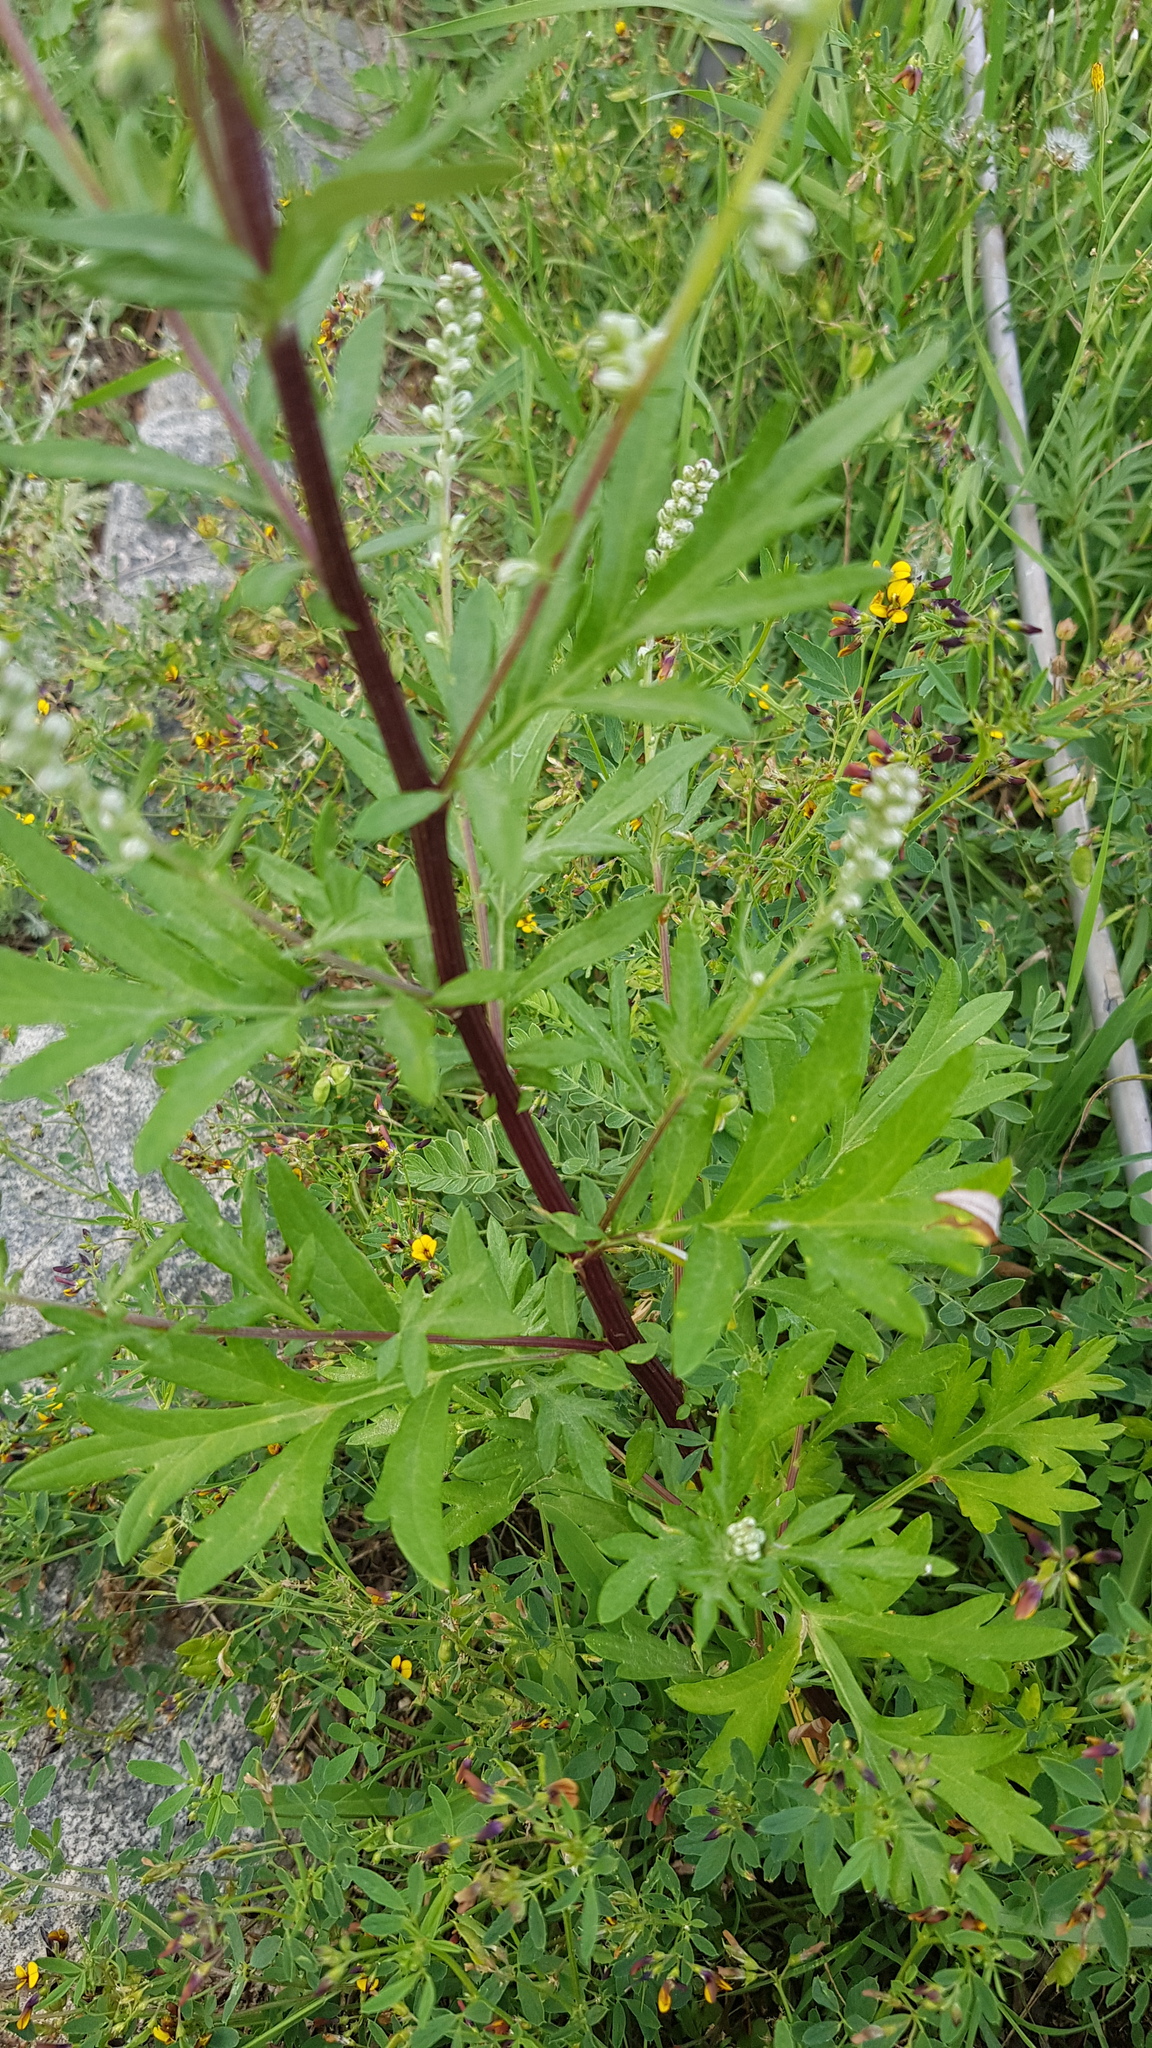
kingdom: Plantae
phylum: Tracheophyta
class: Magnoliopsida
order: Asterales
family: Asteraceae
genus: Artemisia
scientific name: Artemisia mongolica
